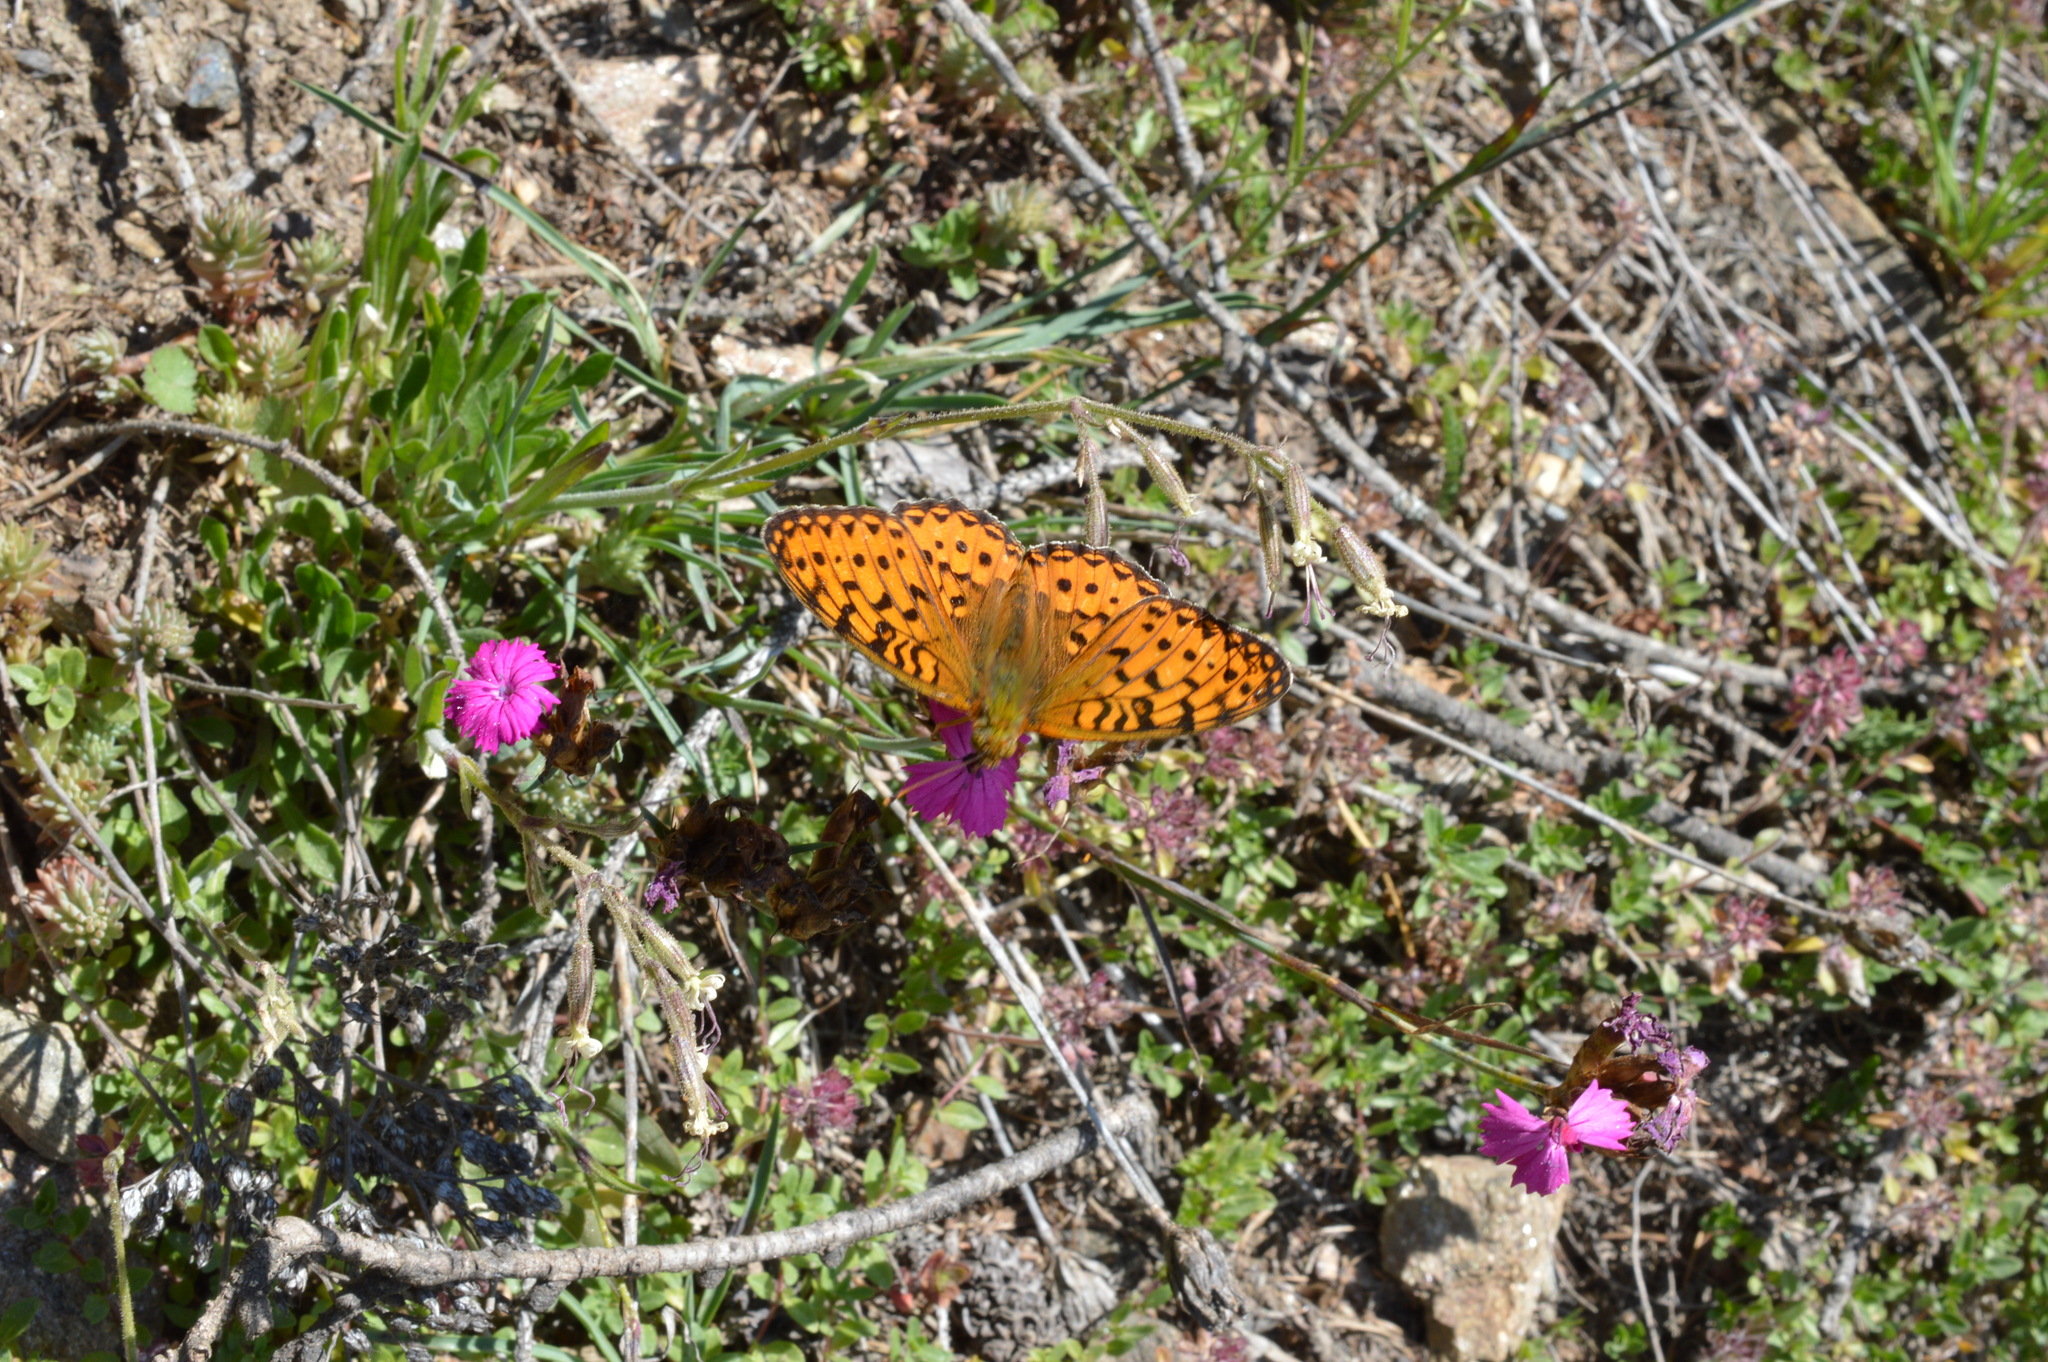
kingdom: Animalia
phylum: Arthropoda
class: Insecta
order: Lepidoptera
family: Nymphalidae
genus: Speyeria
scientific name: Speyeria aglaja
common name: Dark green fritillary
